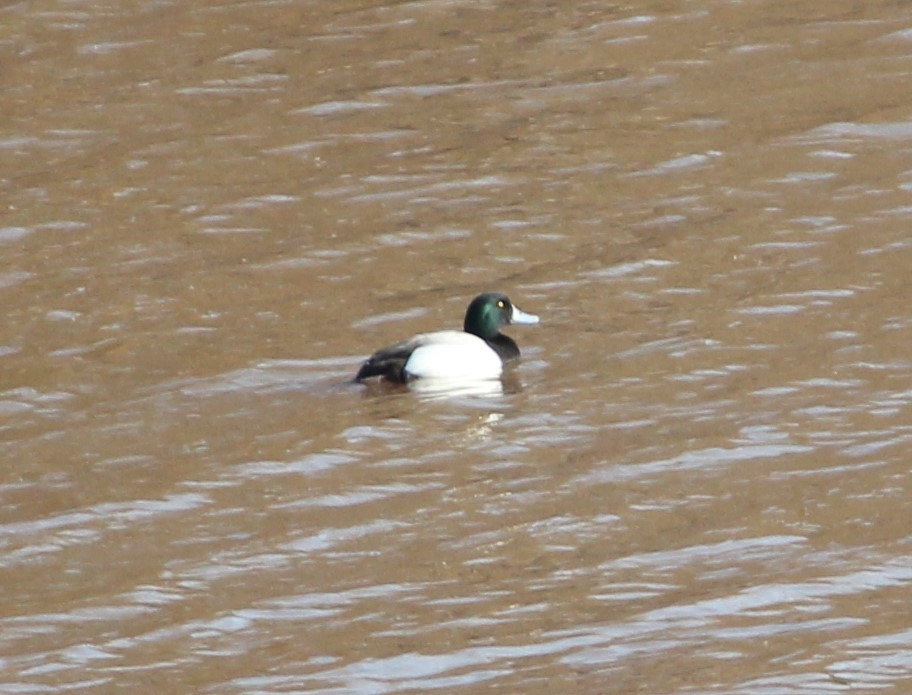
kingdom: Animalia
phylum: Chordata
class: Aves
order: Anseriformes
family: Anatidae
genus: Aythya
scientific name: Aythya marila
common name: Greater scaup
